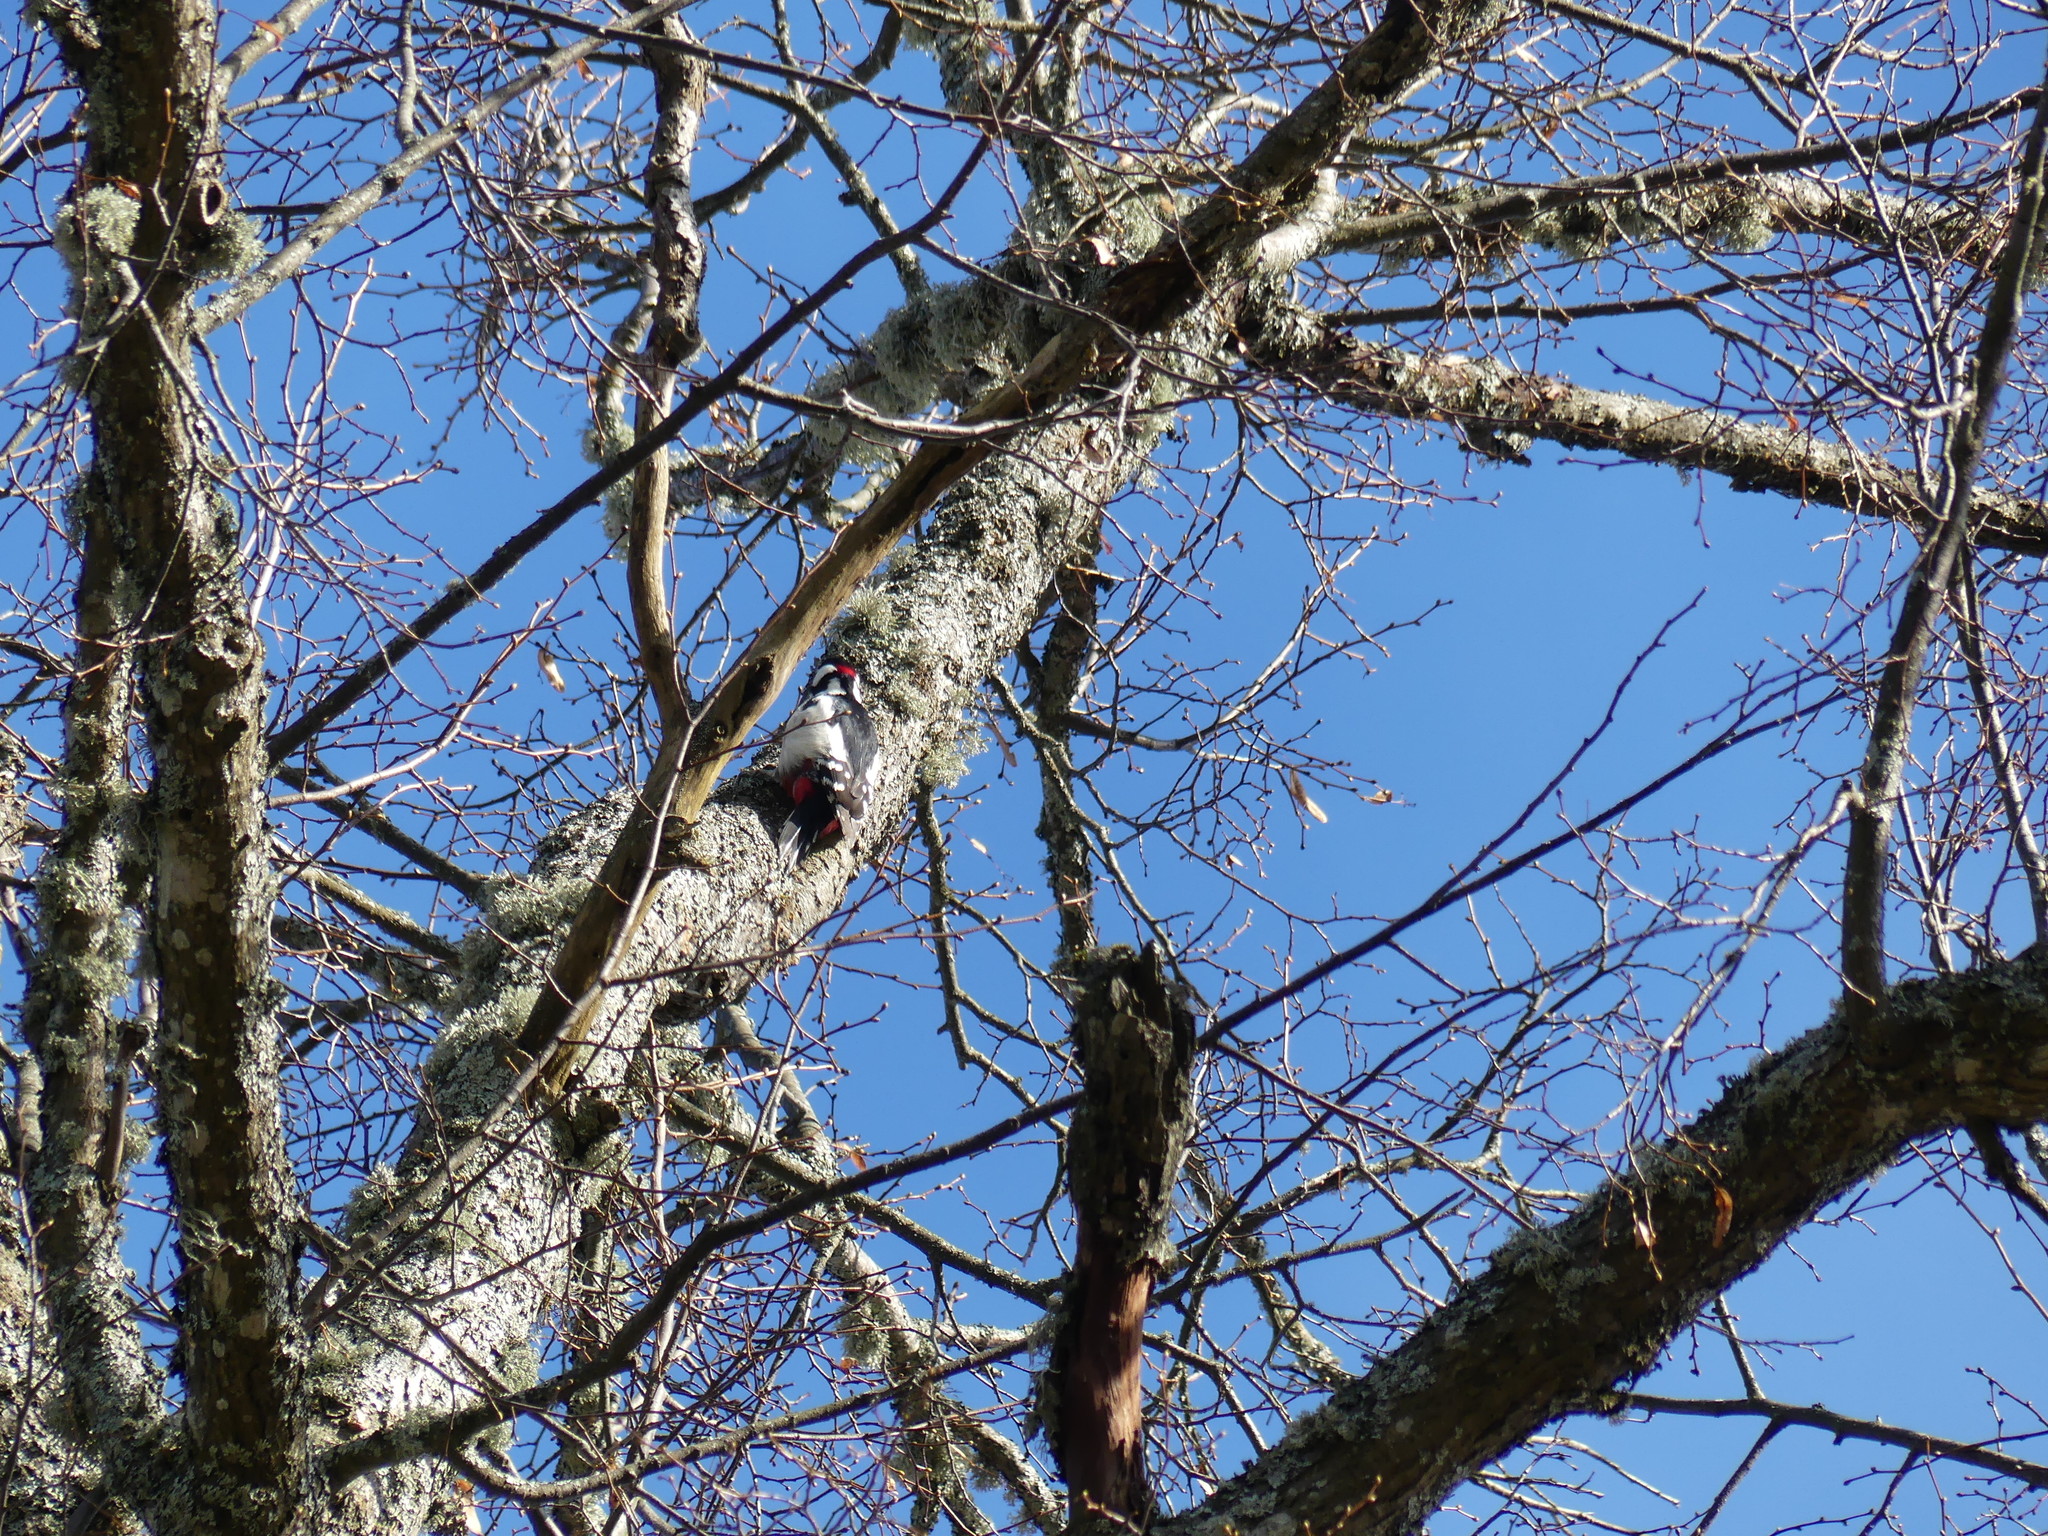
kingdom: Animalia
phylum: Chordata
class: Aves
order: Piciformes
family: Picidae
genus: Dendrocopos
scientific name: Dendrocopos major
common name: Great spotted woodpecker
